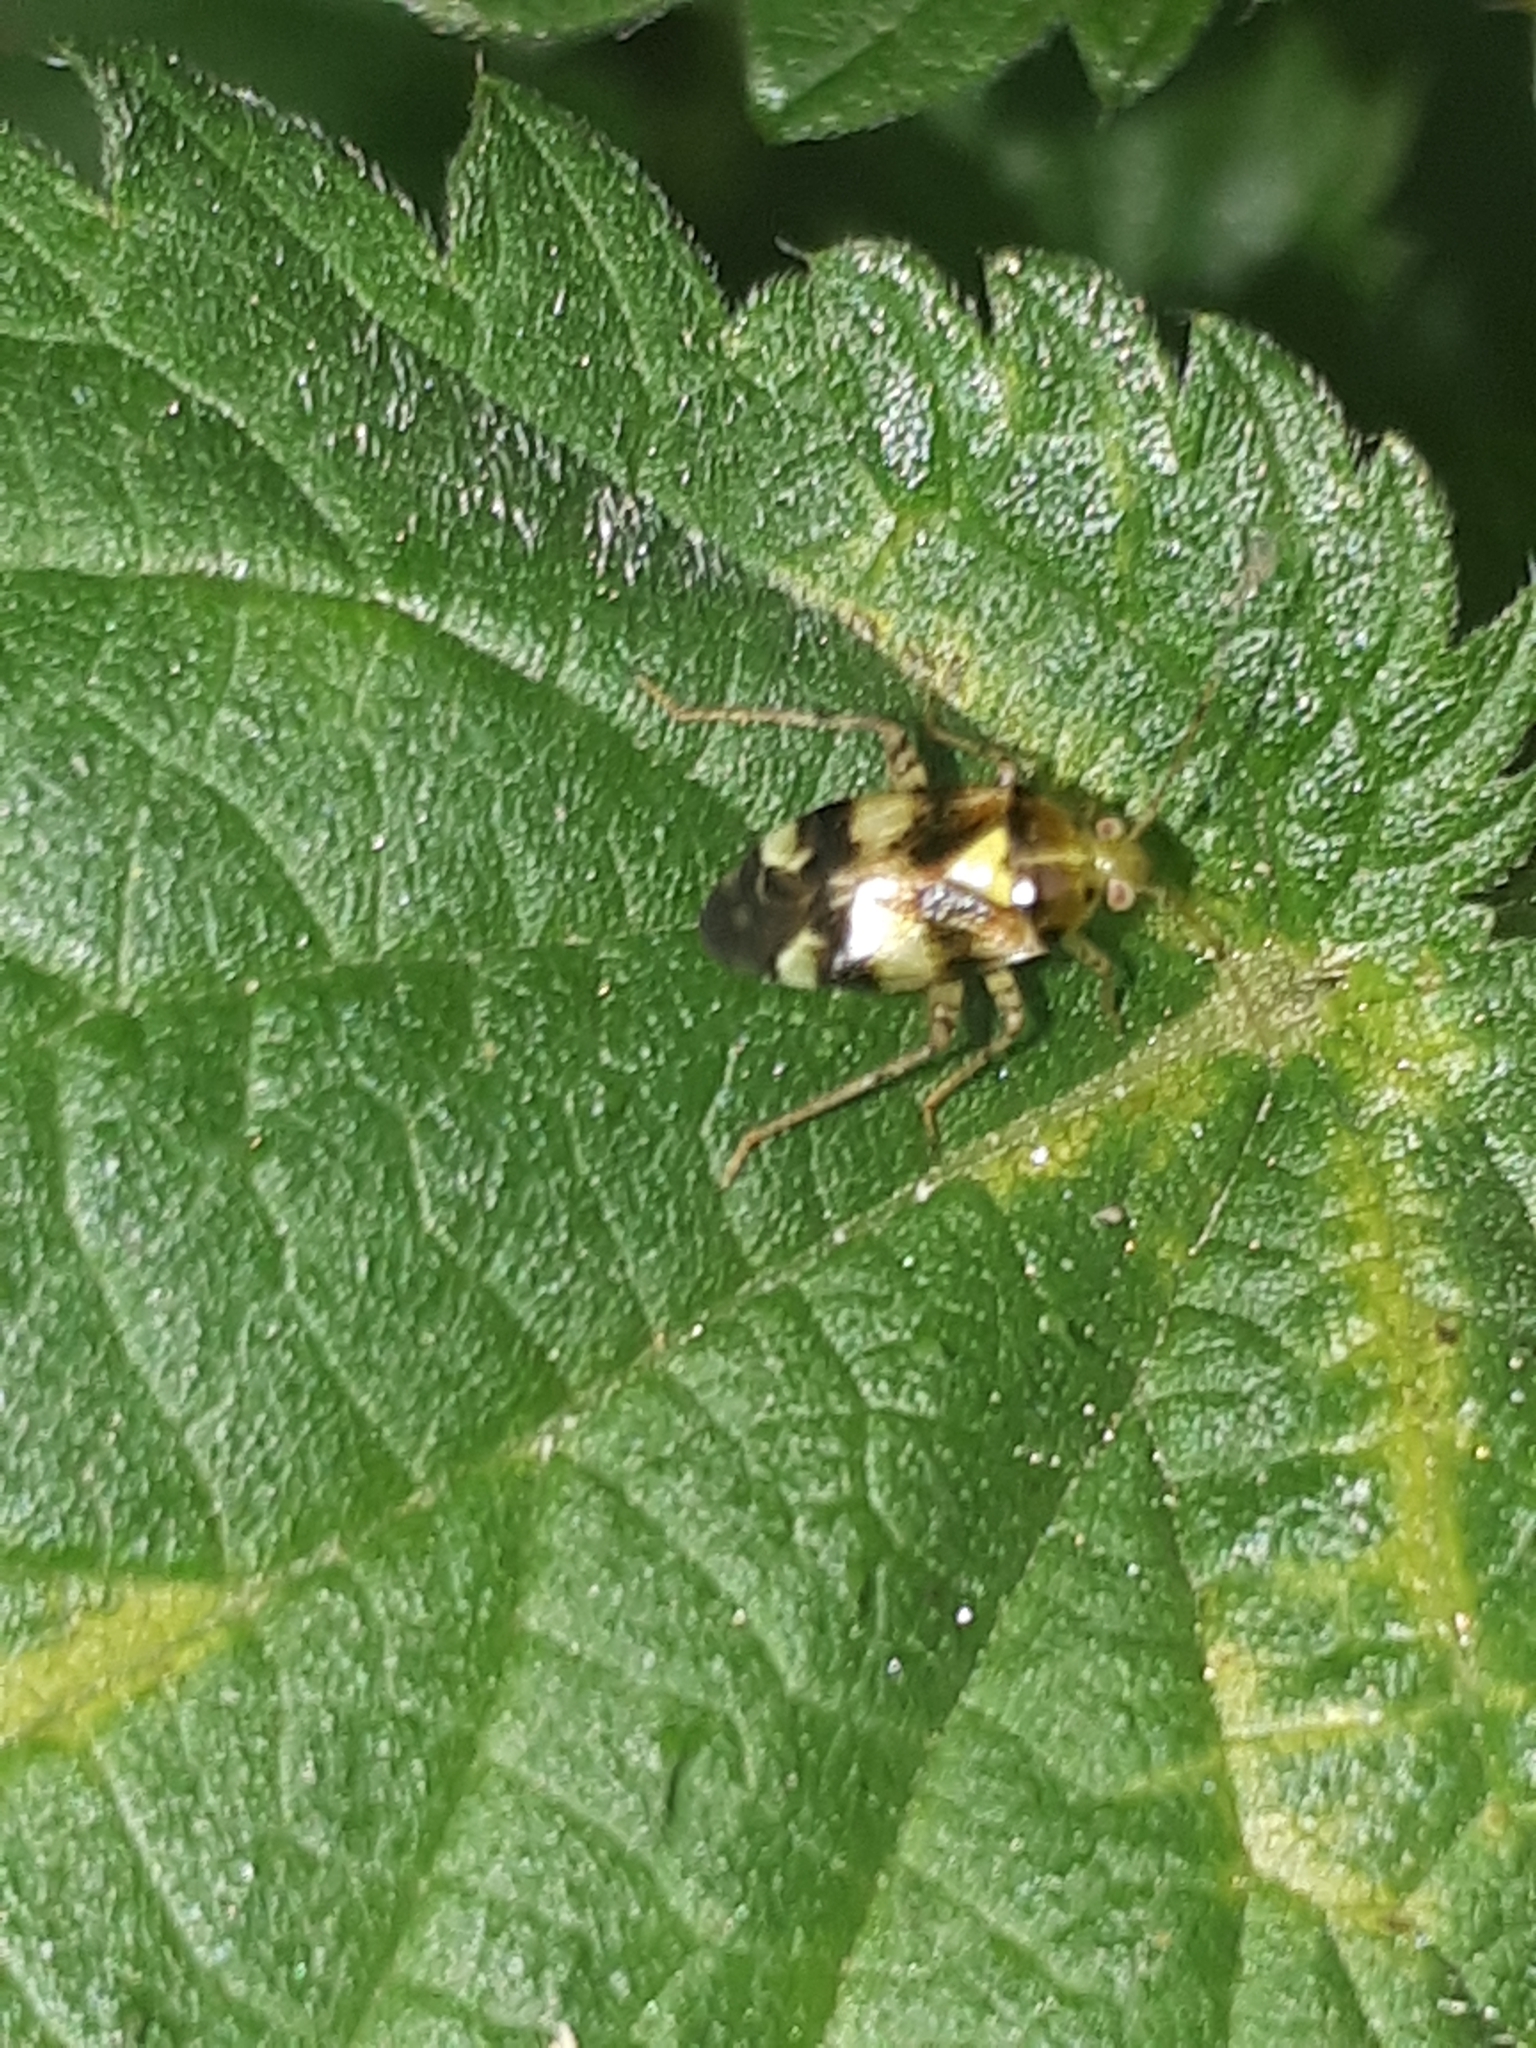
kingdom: Animalia
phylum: Arthropoda
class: Insecta
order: Hemiptera
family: Miridae
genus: Liocoris
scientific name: Liocoris tripustulatus
